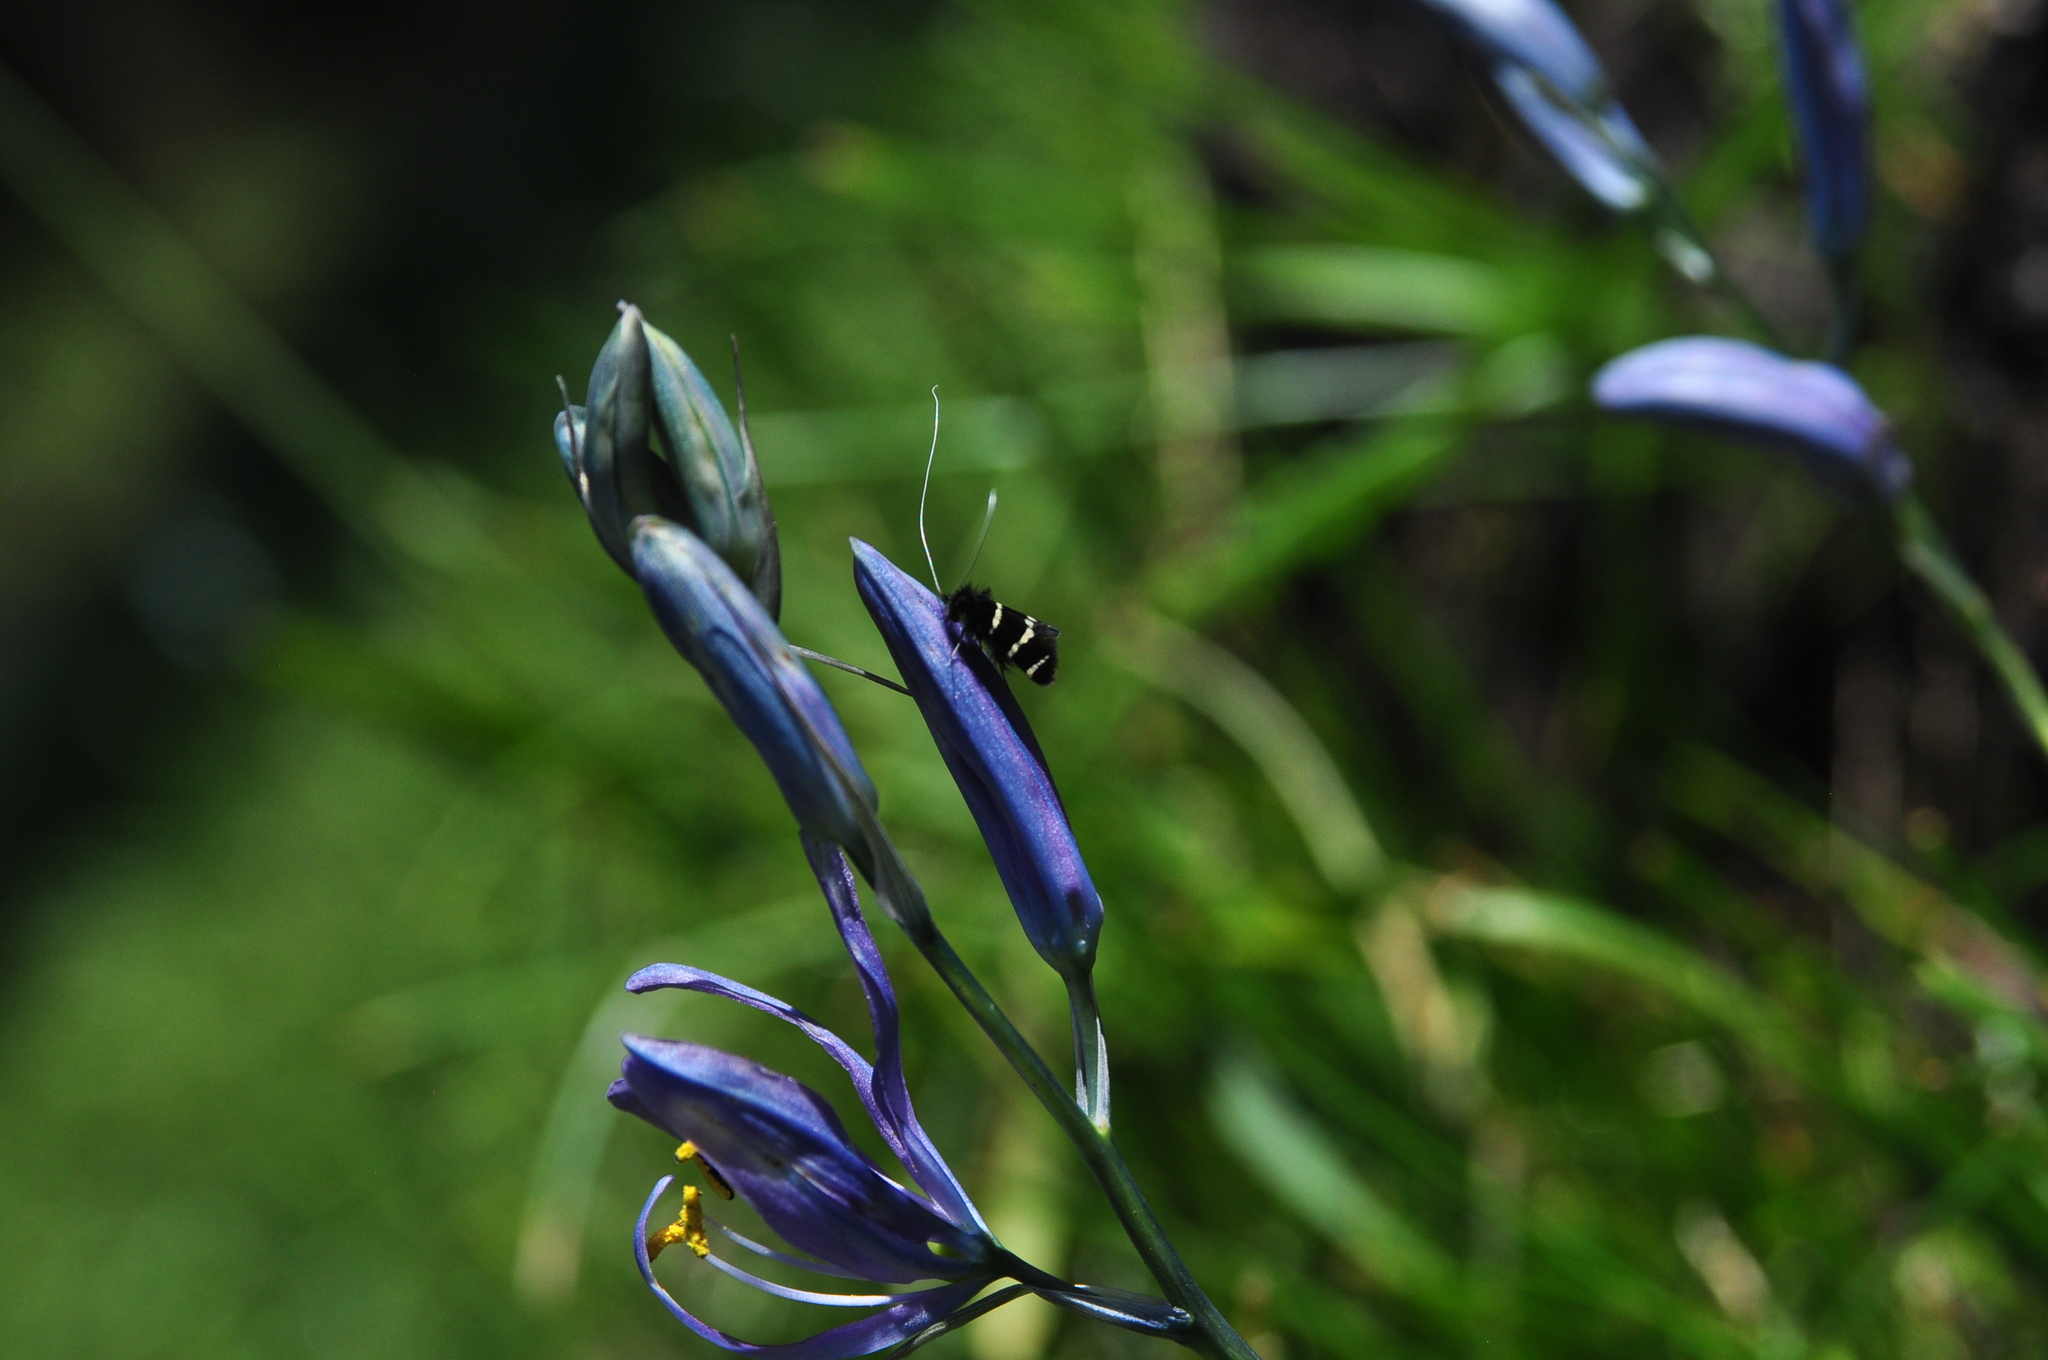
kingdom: Animalia
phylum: Arthropoda
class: Insecta
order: Lepidoptera
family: Adelidae
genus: Adela
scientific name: Adela trigrapha
